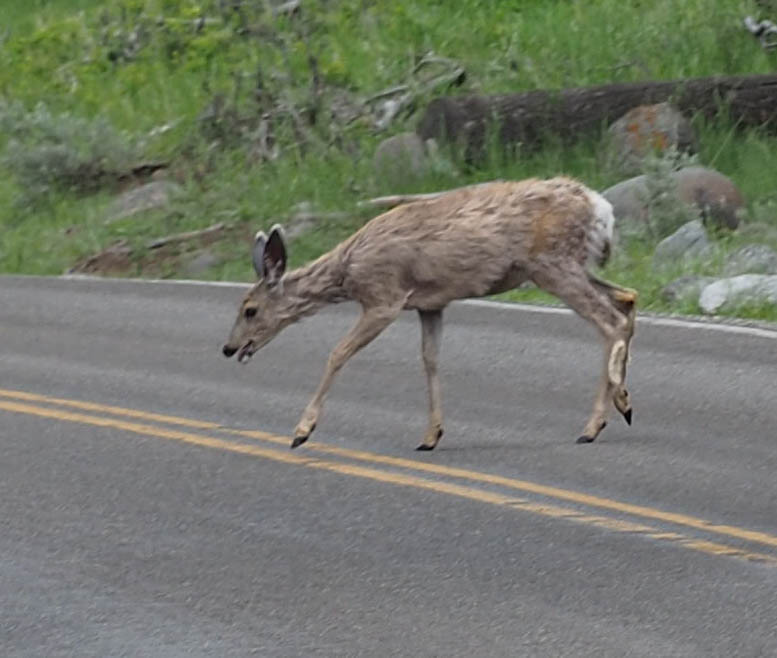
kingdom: Animalia
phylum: Chordata
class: Mammalia
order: Artiodactyla
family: Cervidae
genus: Odocoileus
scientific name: Odocoileus hemionus
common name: Mule deer
